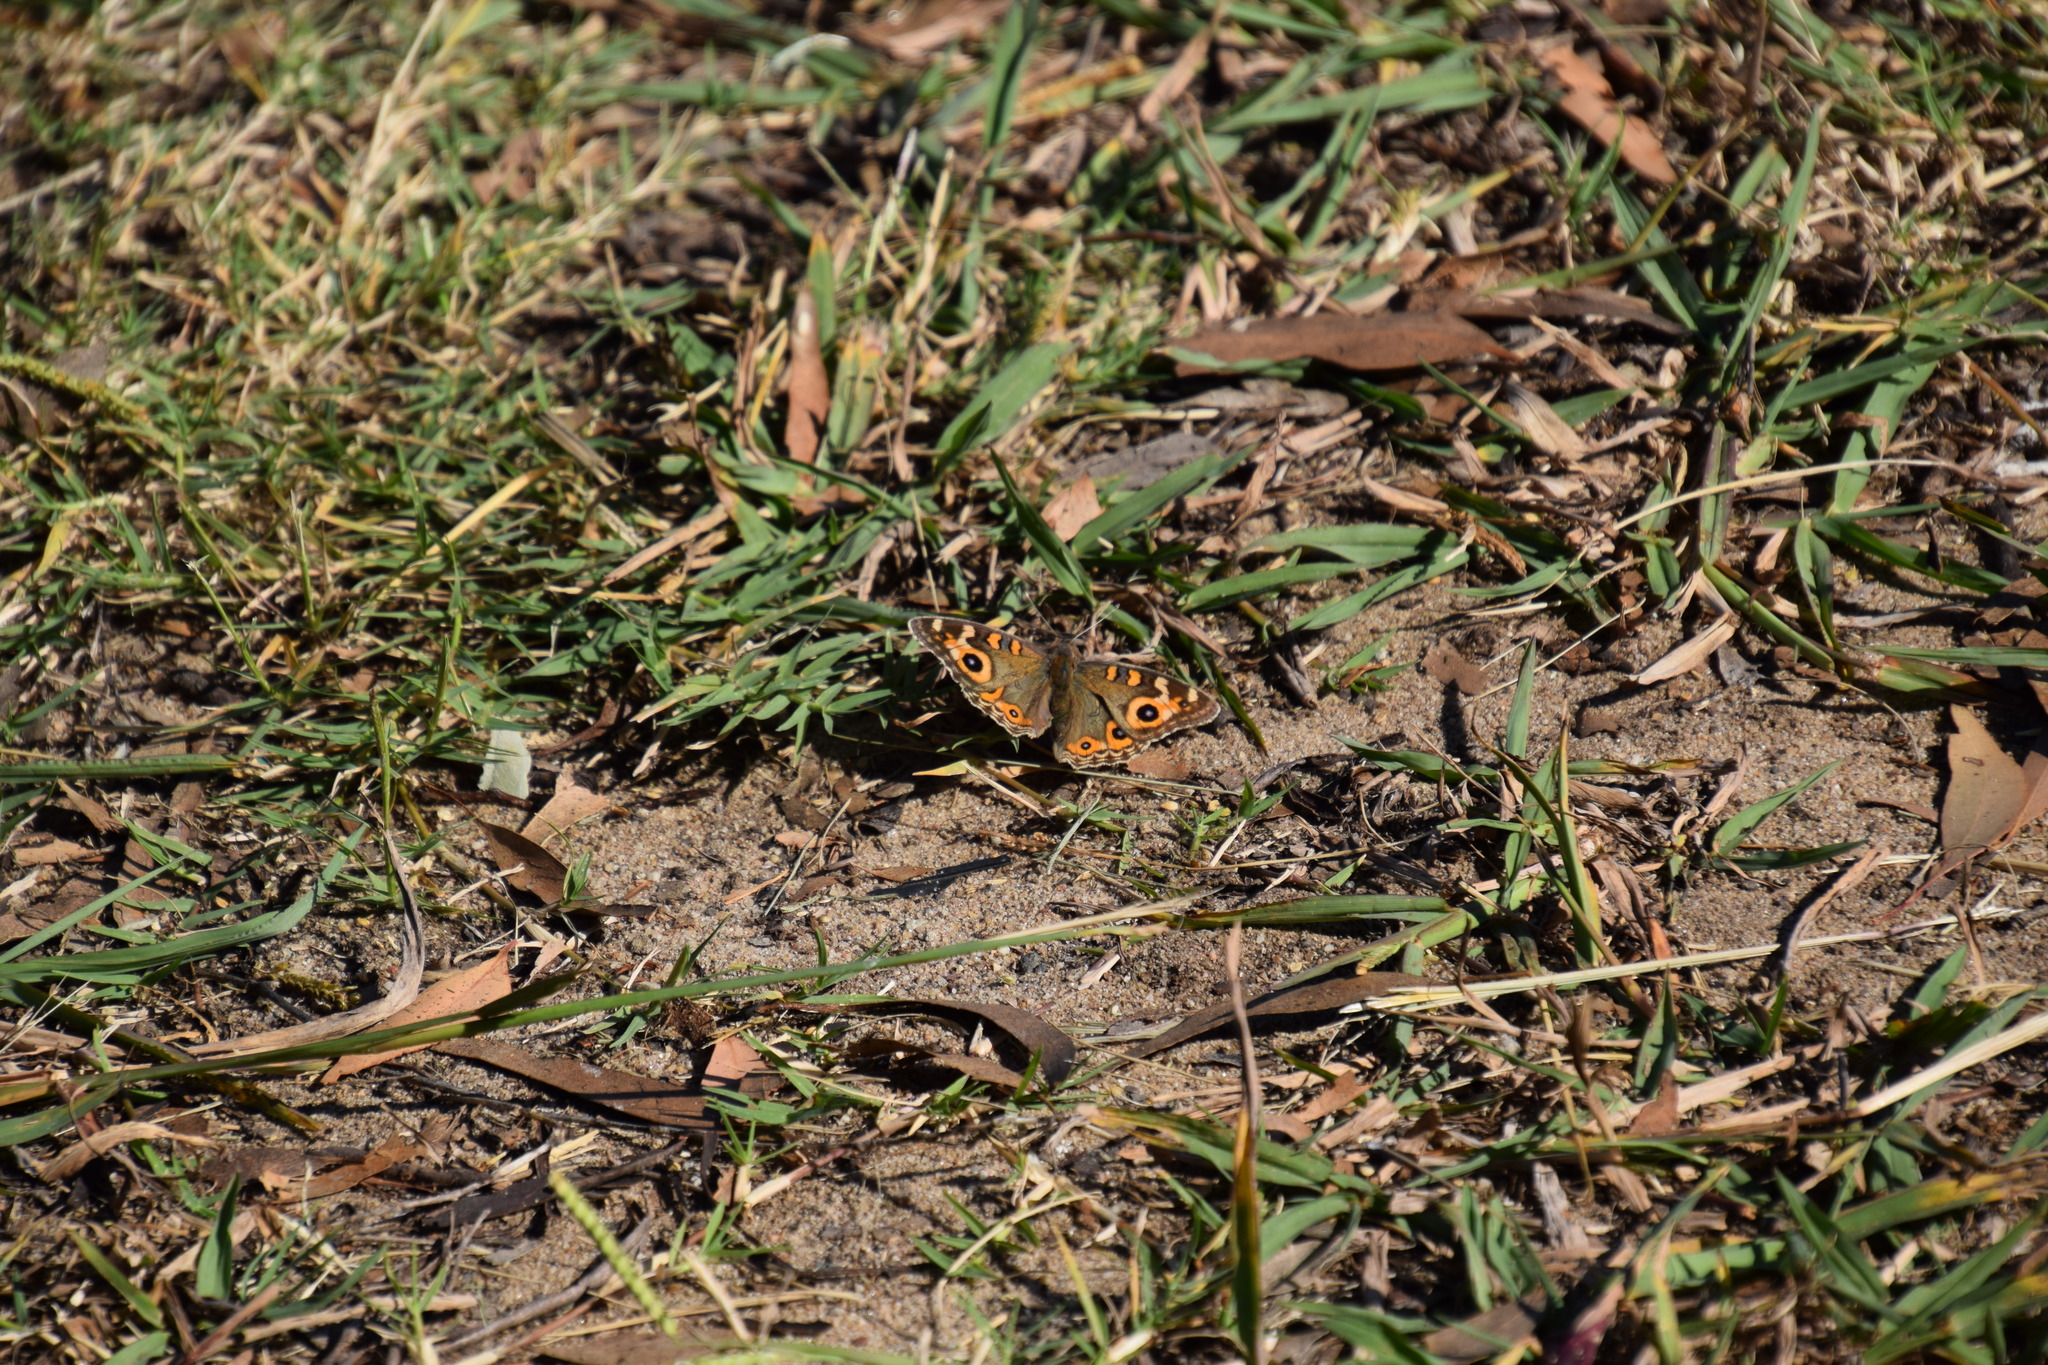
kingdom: Animalia
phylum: Arthropoda
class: Insecta
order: Lepidoptera
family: Nymphalidae
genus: Junonia
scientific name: Junonia villida
